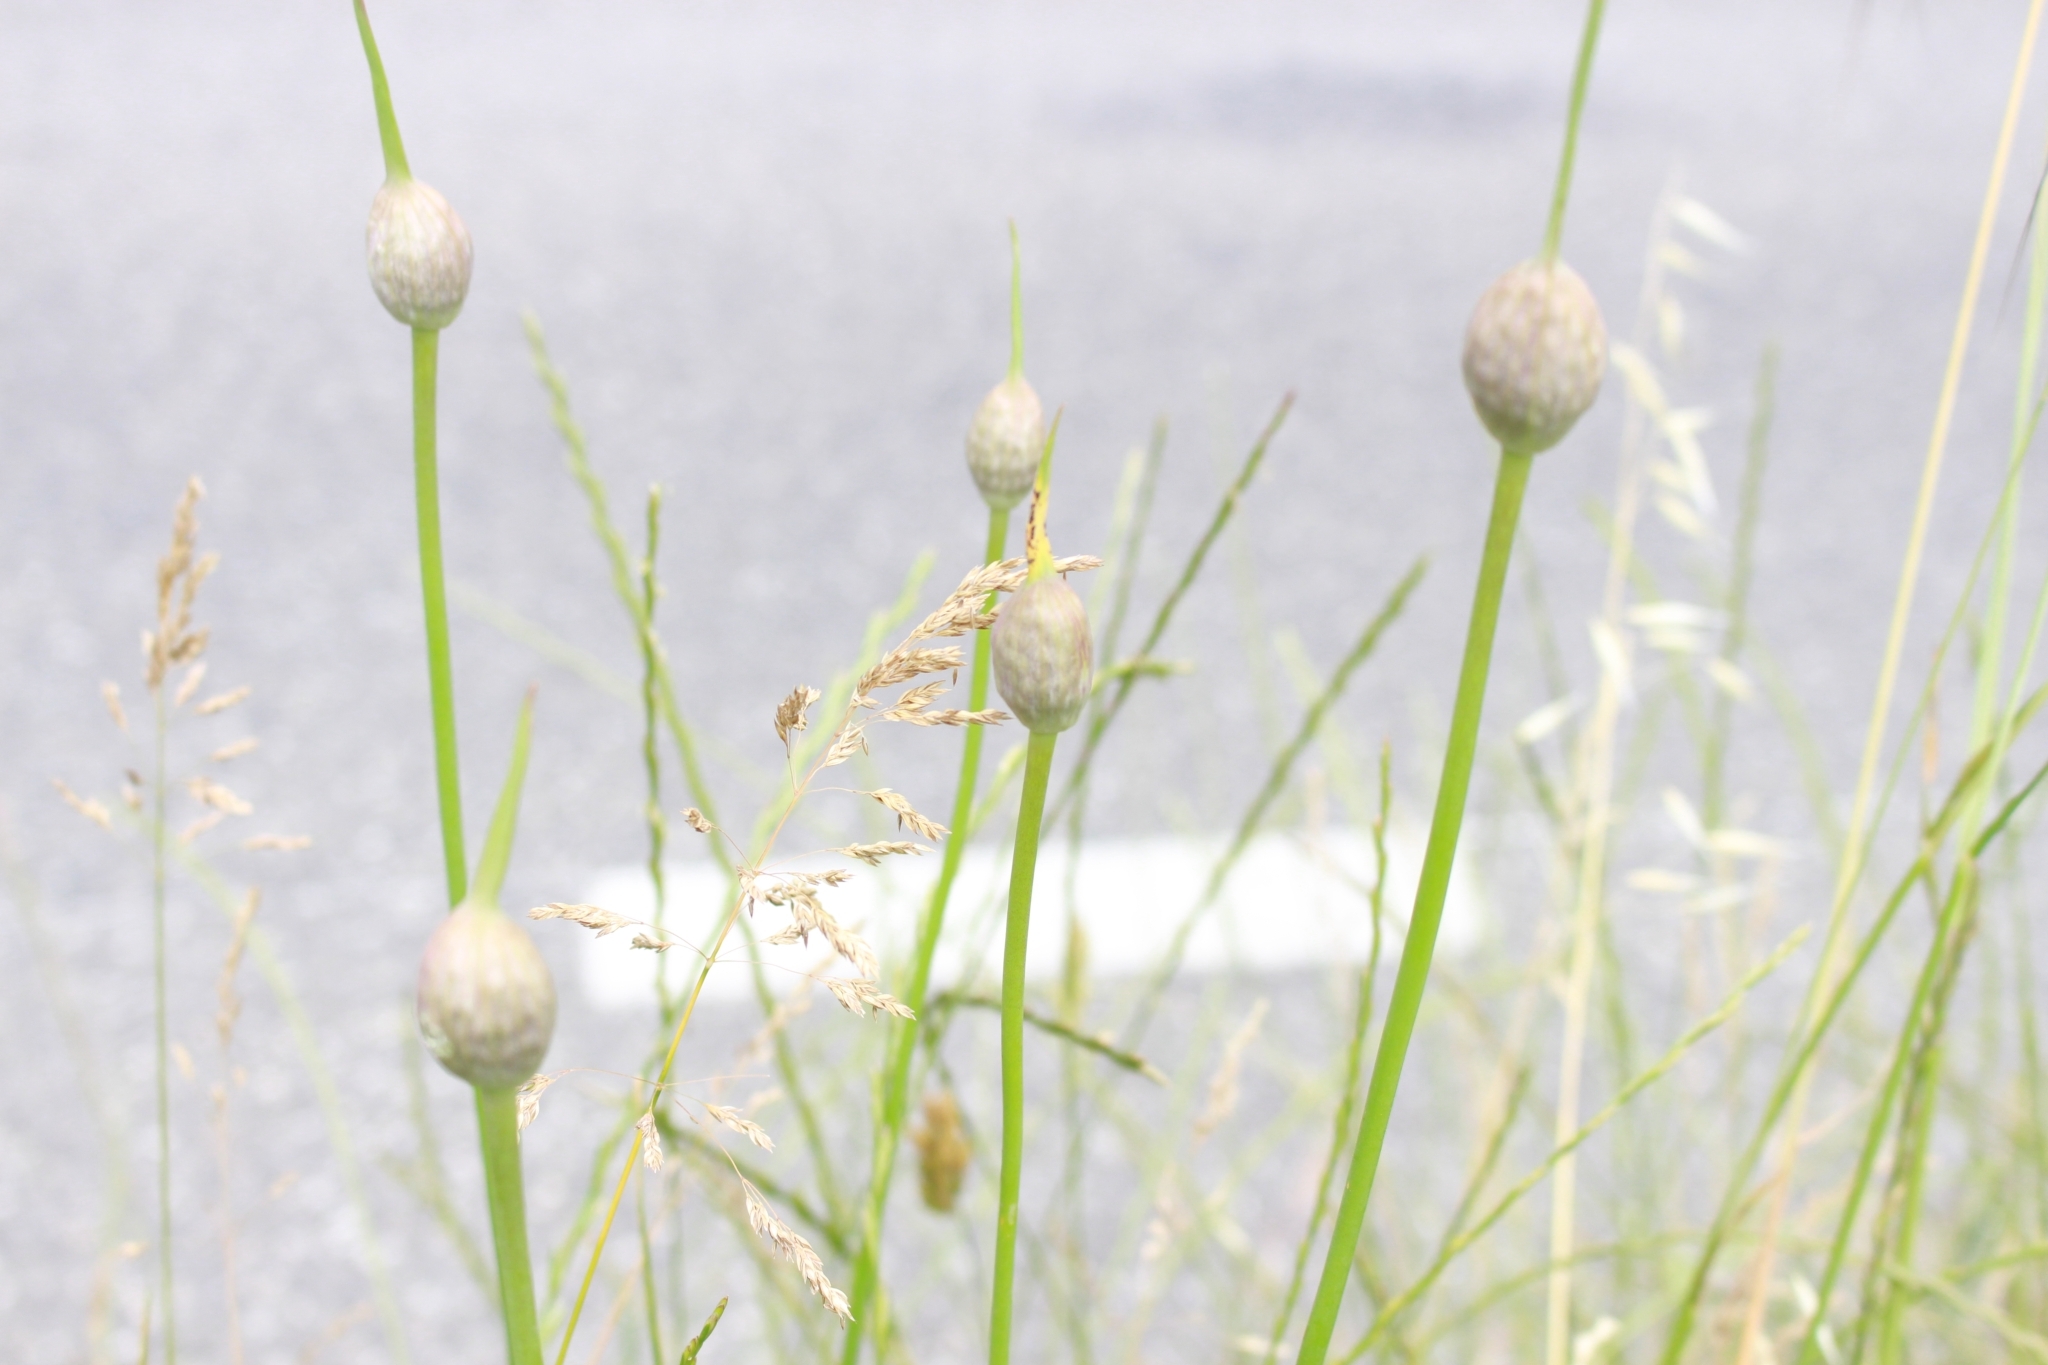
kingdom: Plantae
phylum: Tracheophyta
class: Liliopsida
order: Asparagales
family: Amaryllidaceae
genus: Allium
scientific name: Allium ampeloprasum
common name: Wild leek
